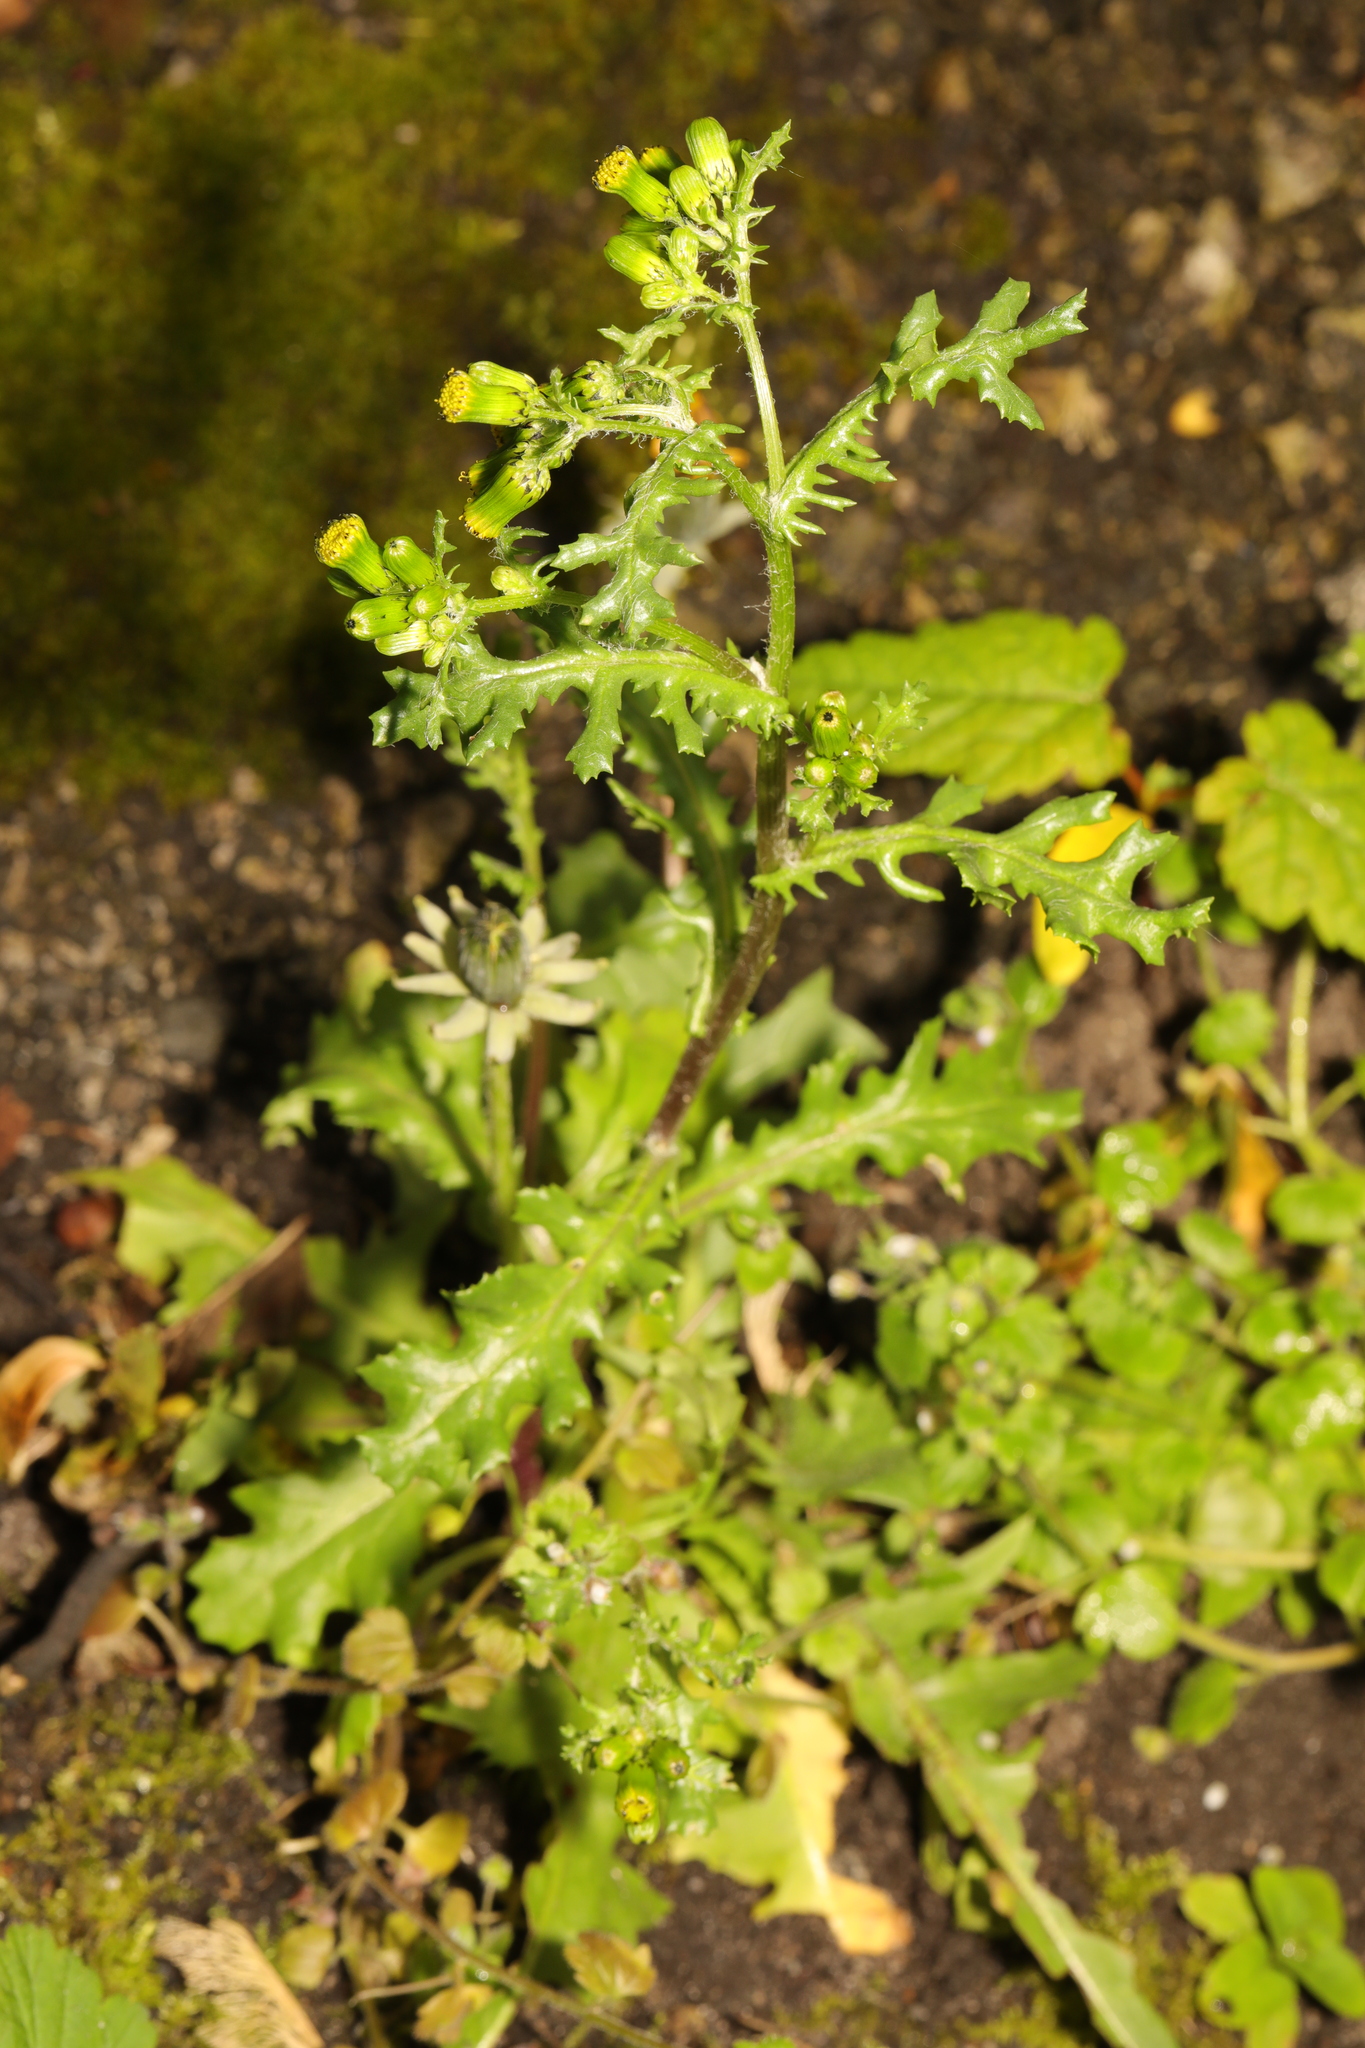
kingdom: Plantae
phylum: Tracheophyta
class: Magnoliopsida
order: Asterales
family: Asteraceae
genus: Senecio
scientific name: Senecio vulgaris
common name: Old-man-in-the-spring
